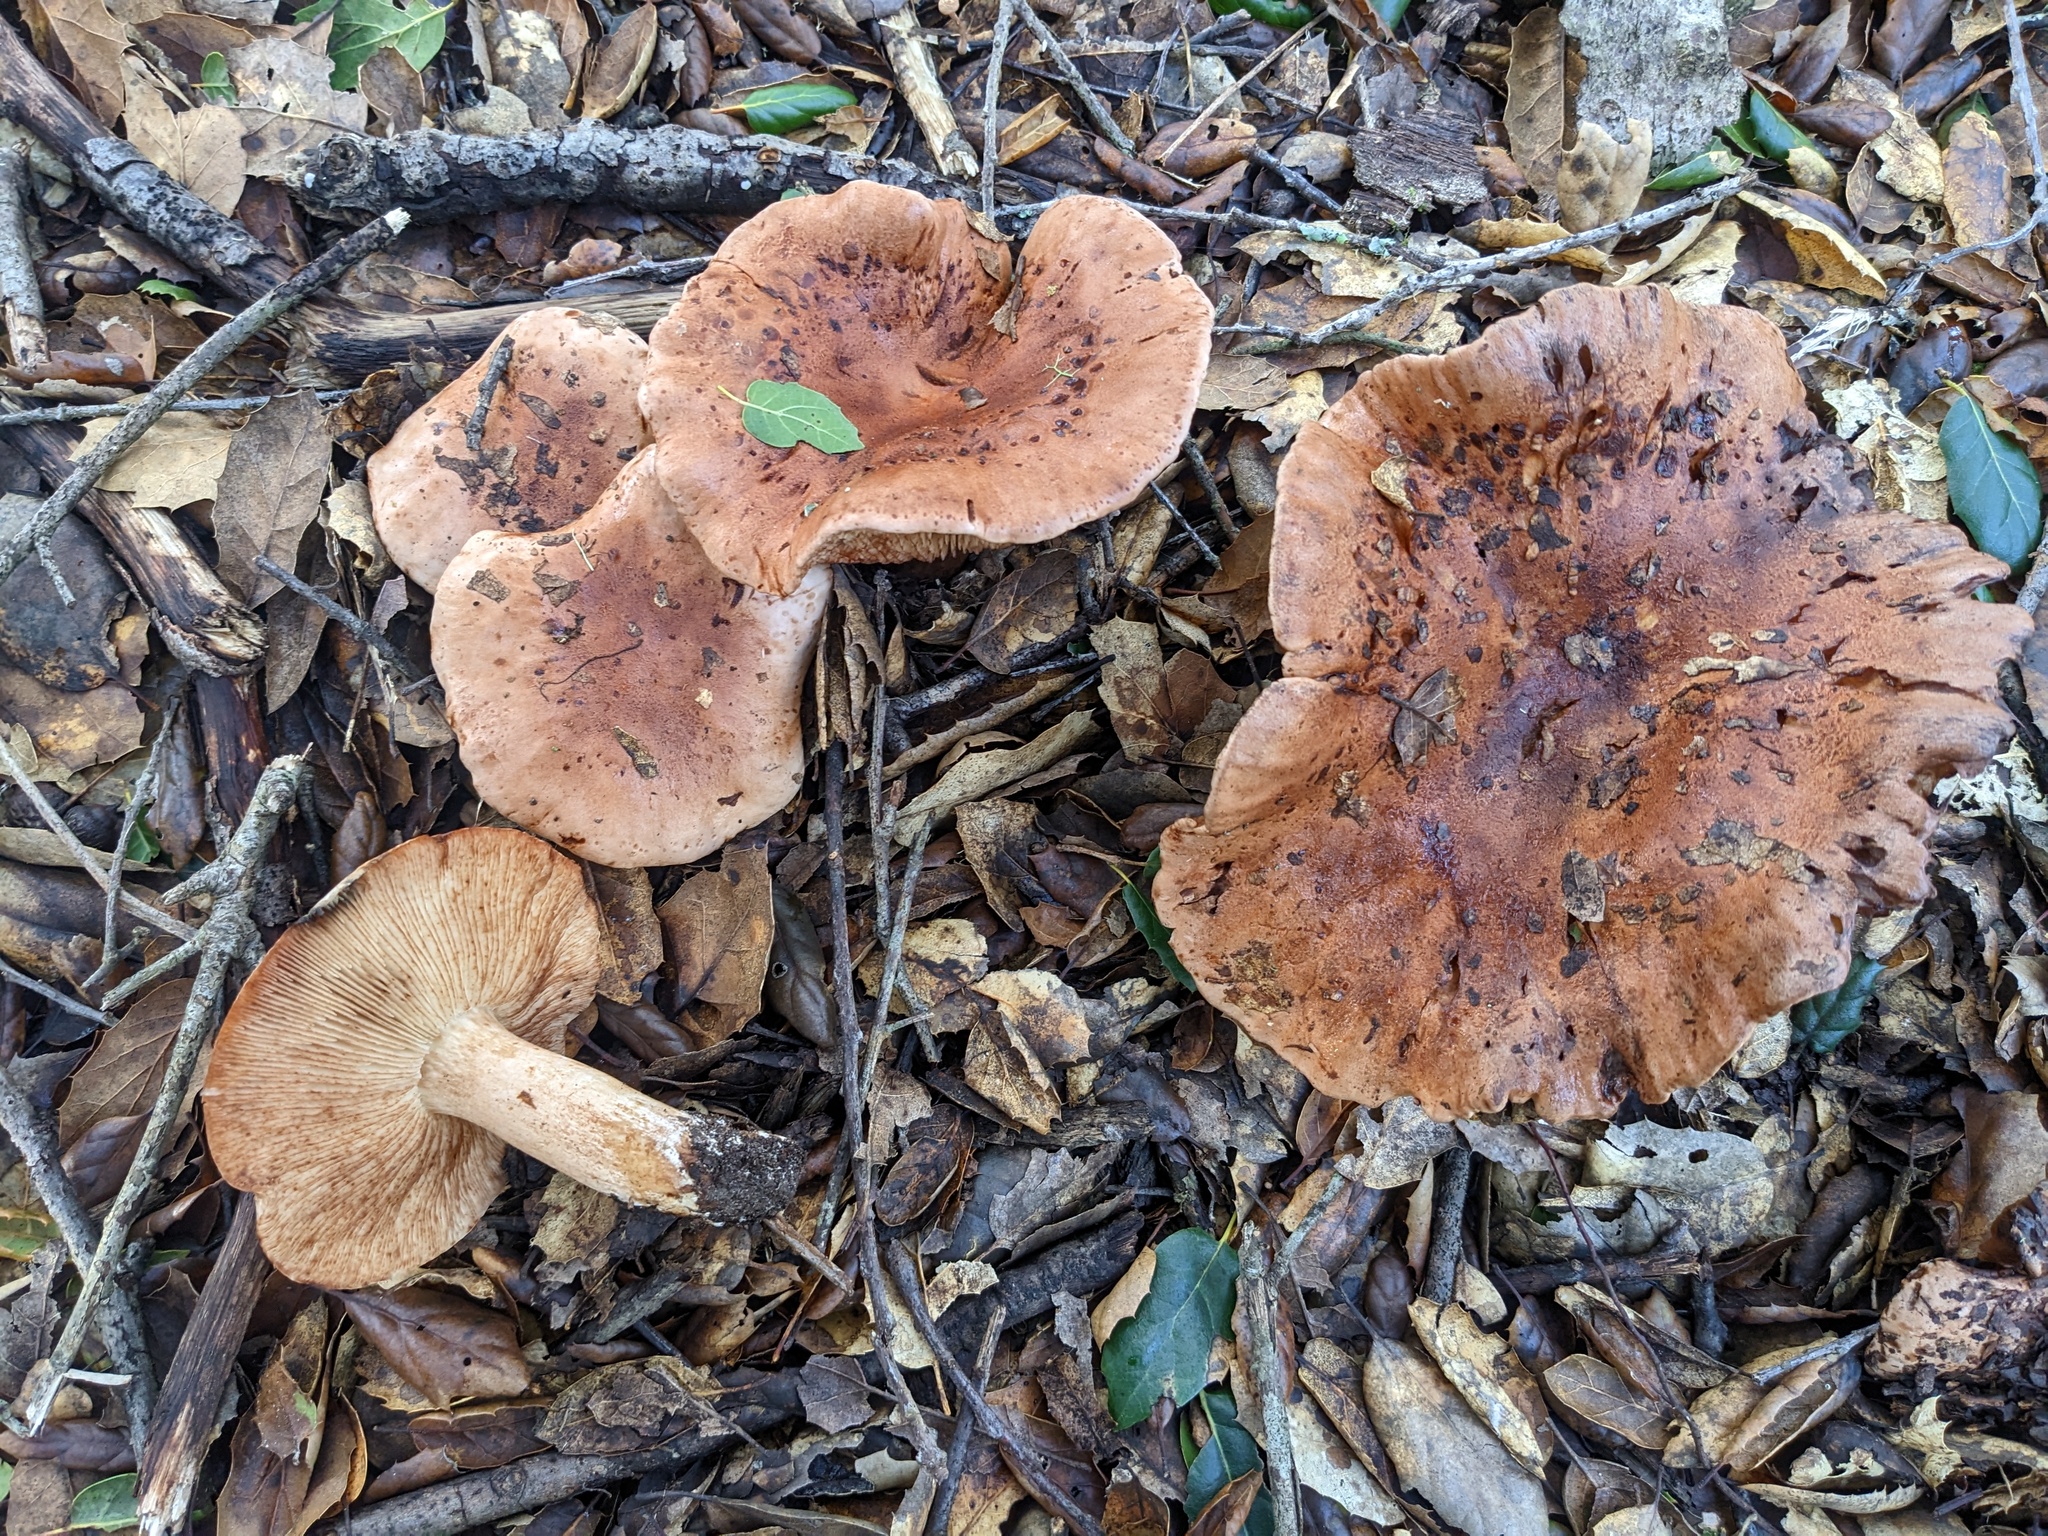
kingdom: Fungi
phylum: Basidiomycota
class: Agaricomycetes
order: Agaricales
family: Tricholomataceae
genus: Melanoleuca
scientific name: Melanoleuca dryophila
